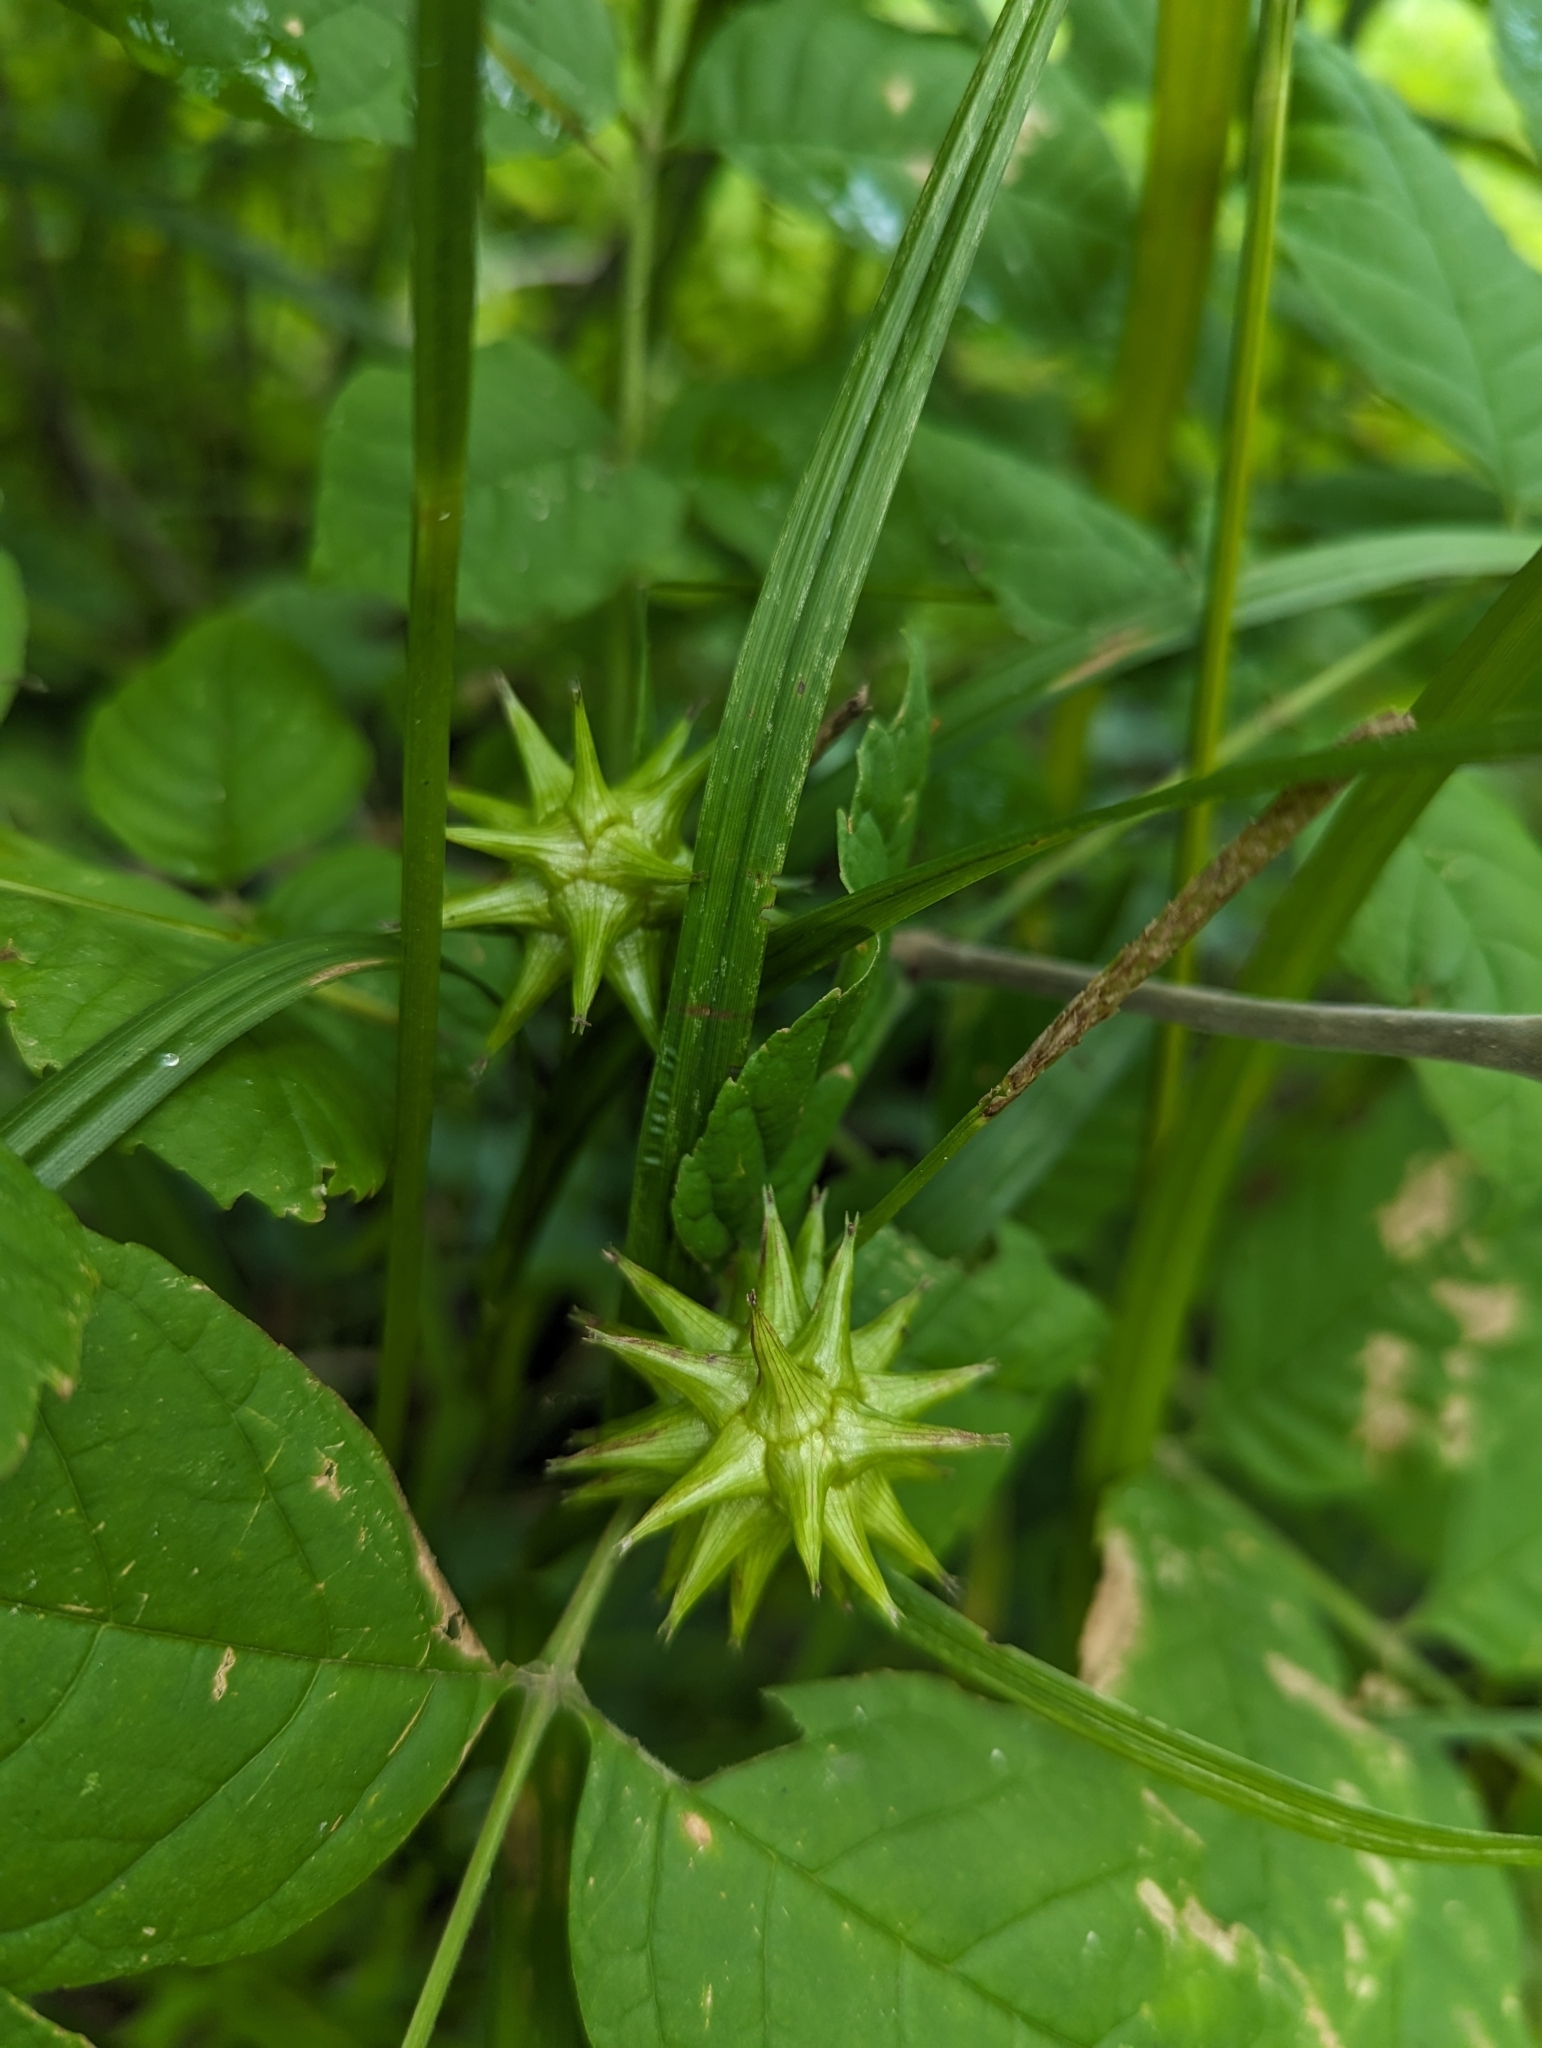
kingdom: Plantae
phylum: Tracheophyta
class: Liliopsida
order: Poales
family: Cyperaceae
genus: Carex
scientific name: Carex grayi
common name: Asa gray's sedge
